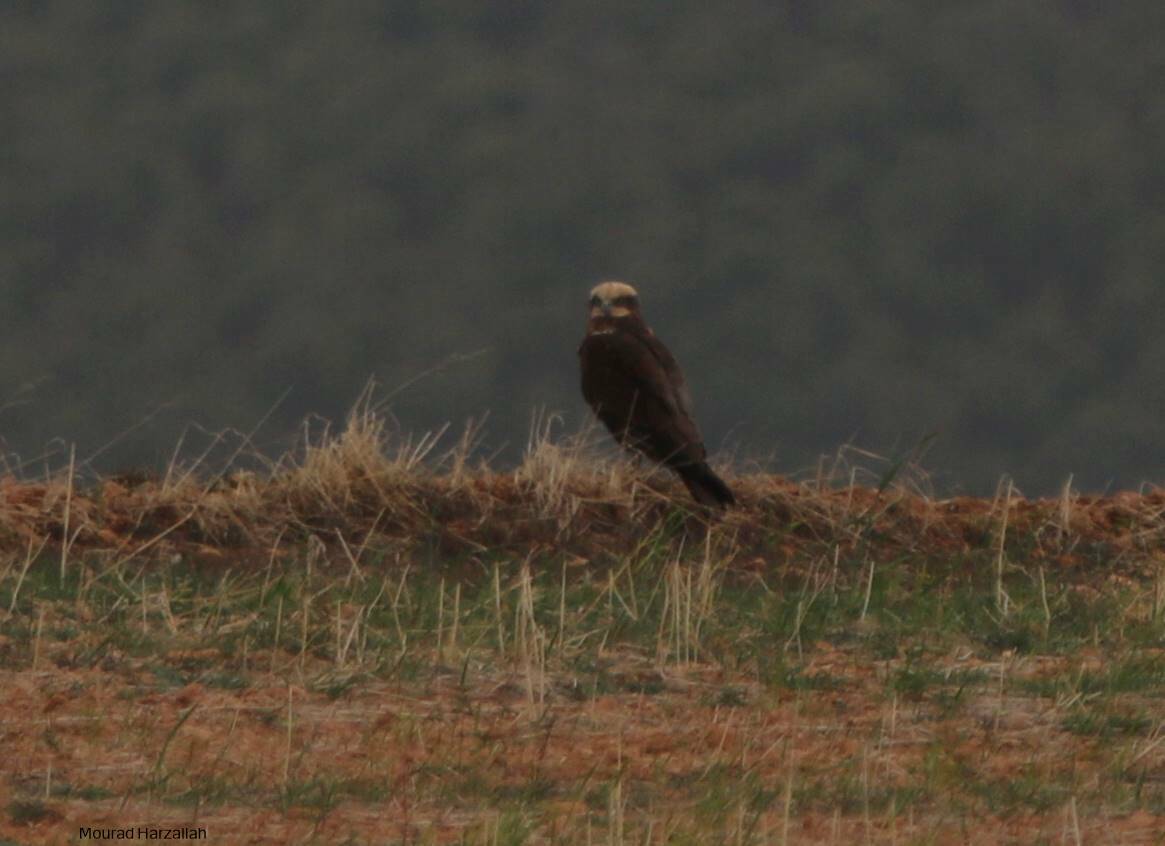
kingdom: Animalia
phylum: Chordata
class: Aves
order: Accipitriformes
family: Accipitridae
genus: Circus
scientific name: Circus aeruginosus
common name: Western marsh harrier
